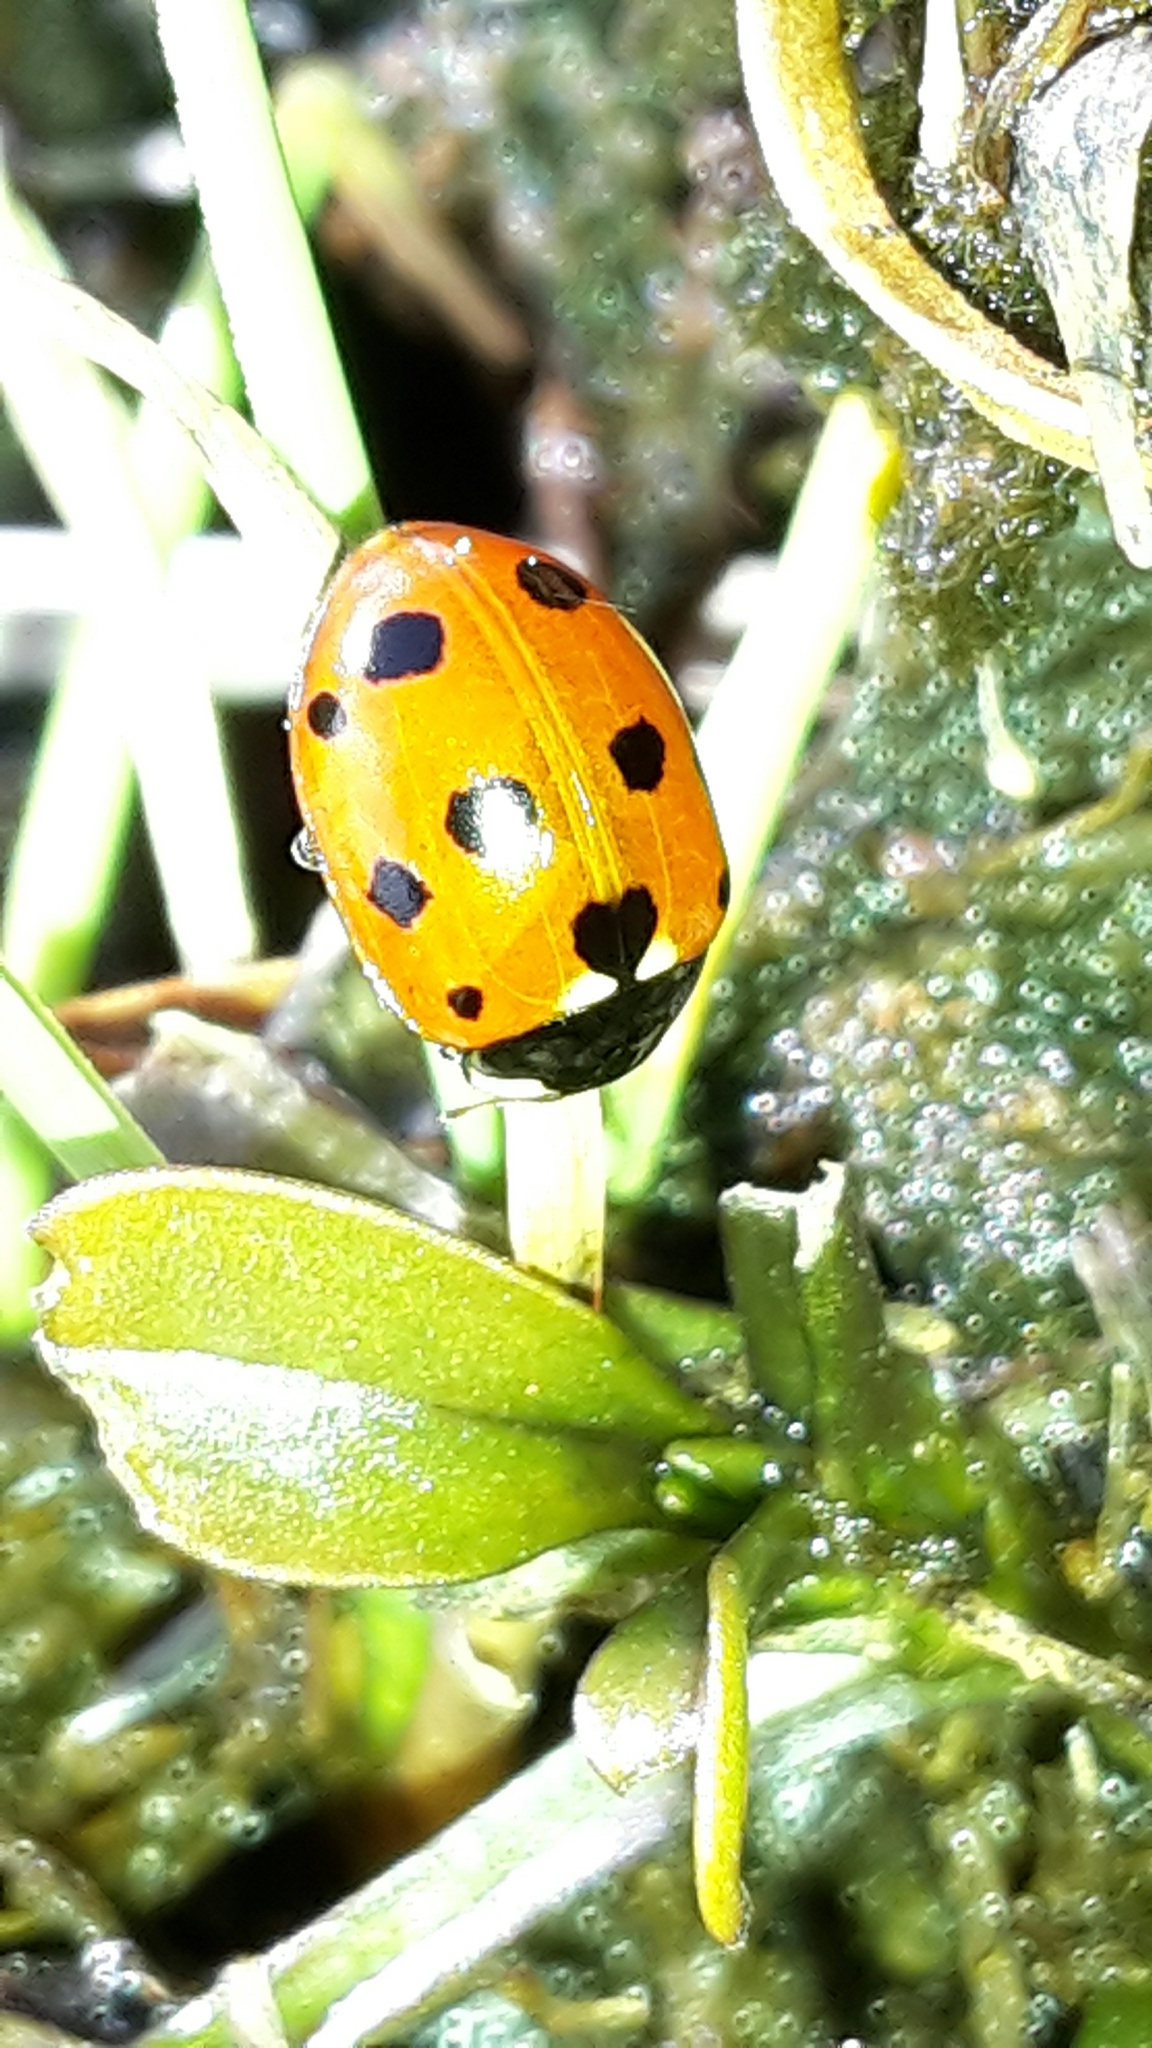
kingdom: Animalia
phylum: Arthropoda
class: Insecta
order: Coleoptera
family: Coccinellidae
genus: Coccinella
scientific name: Coccinella undecimpunctata
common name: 11-spot ladybird
